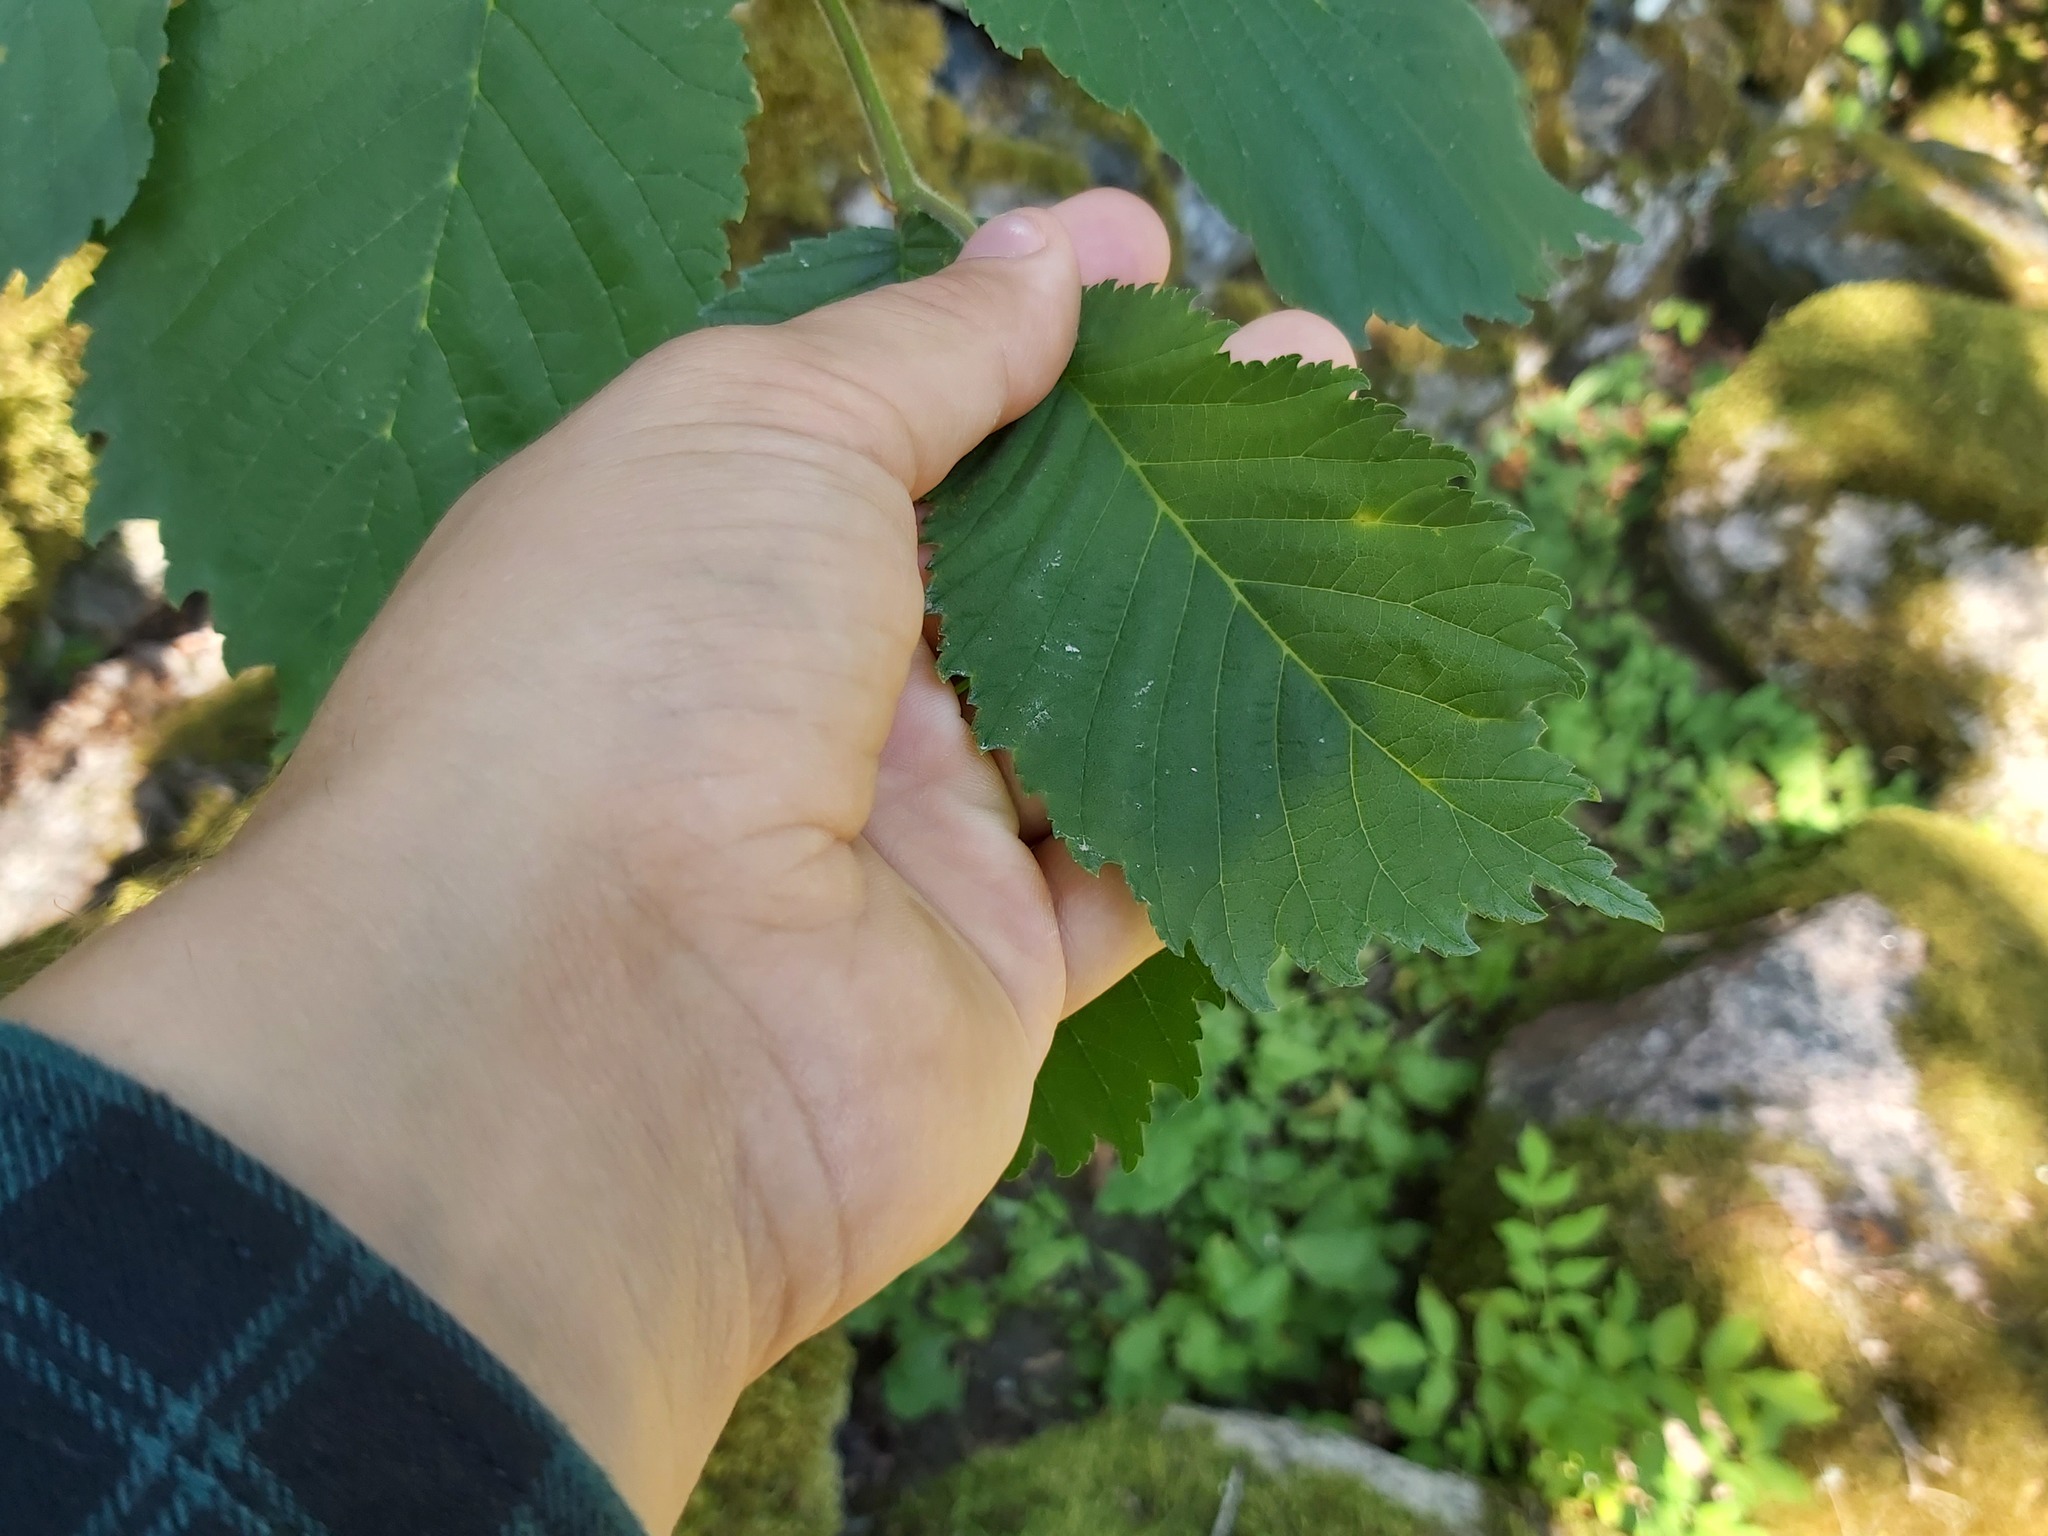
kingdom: Plantae
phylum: Tracheophyta
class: Magnoliopsida
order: Rosales
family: Ulmaceae
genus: Ulmus
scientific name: Ulmus glabra
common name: Wych elm
